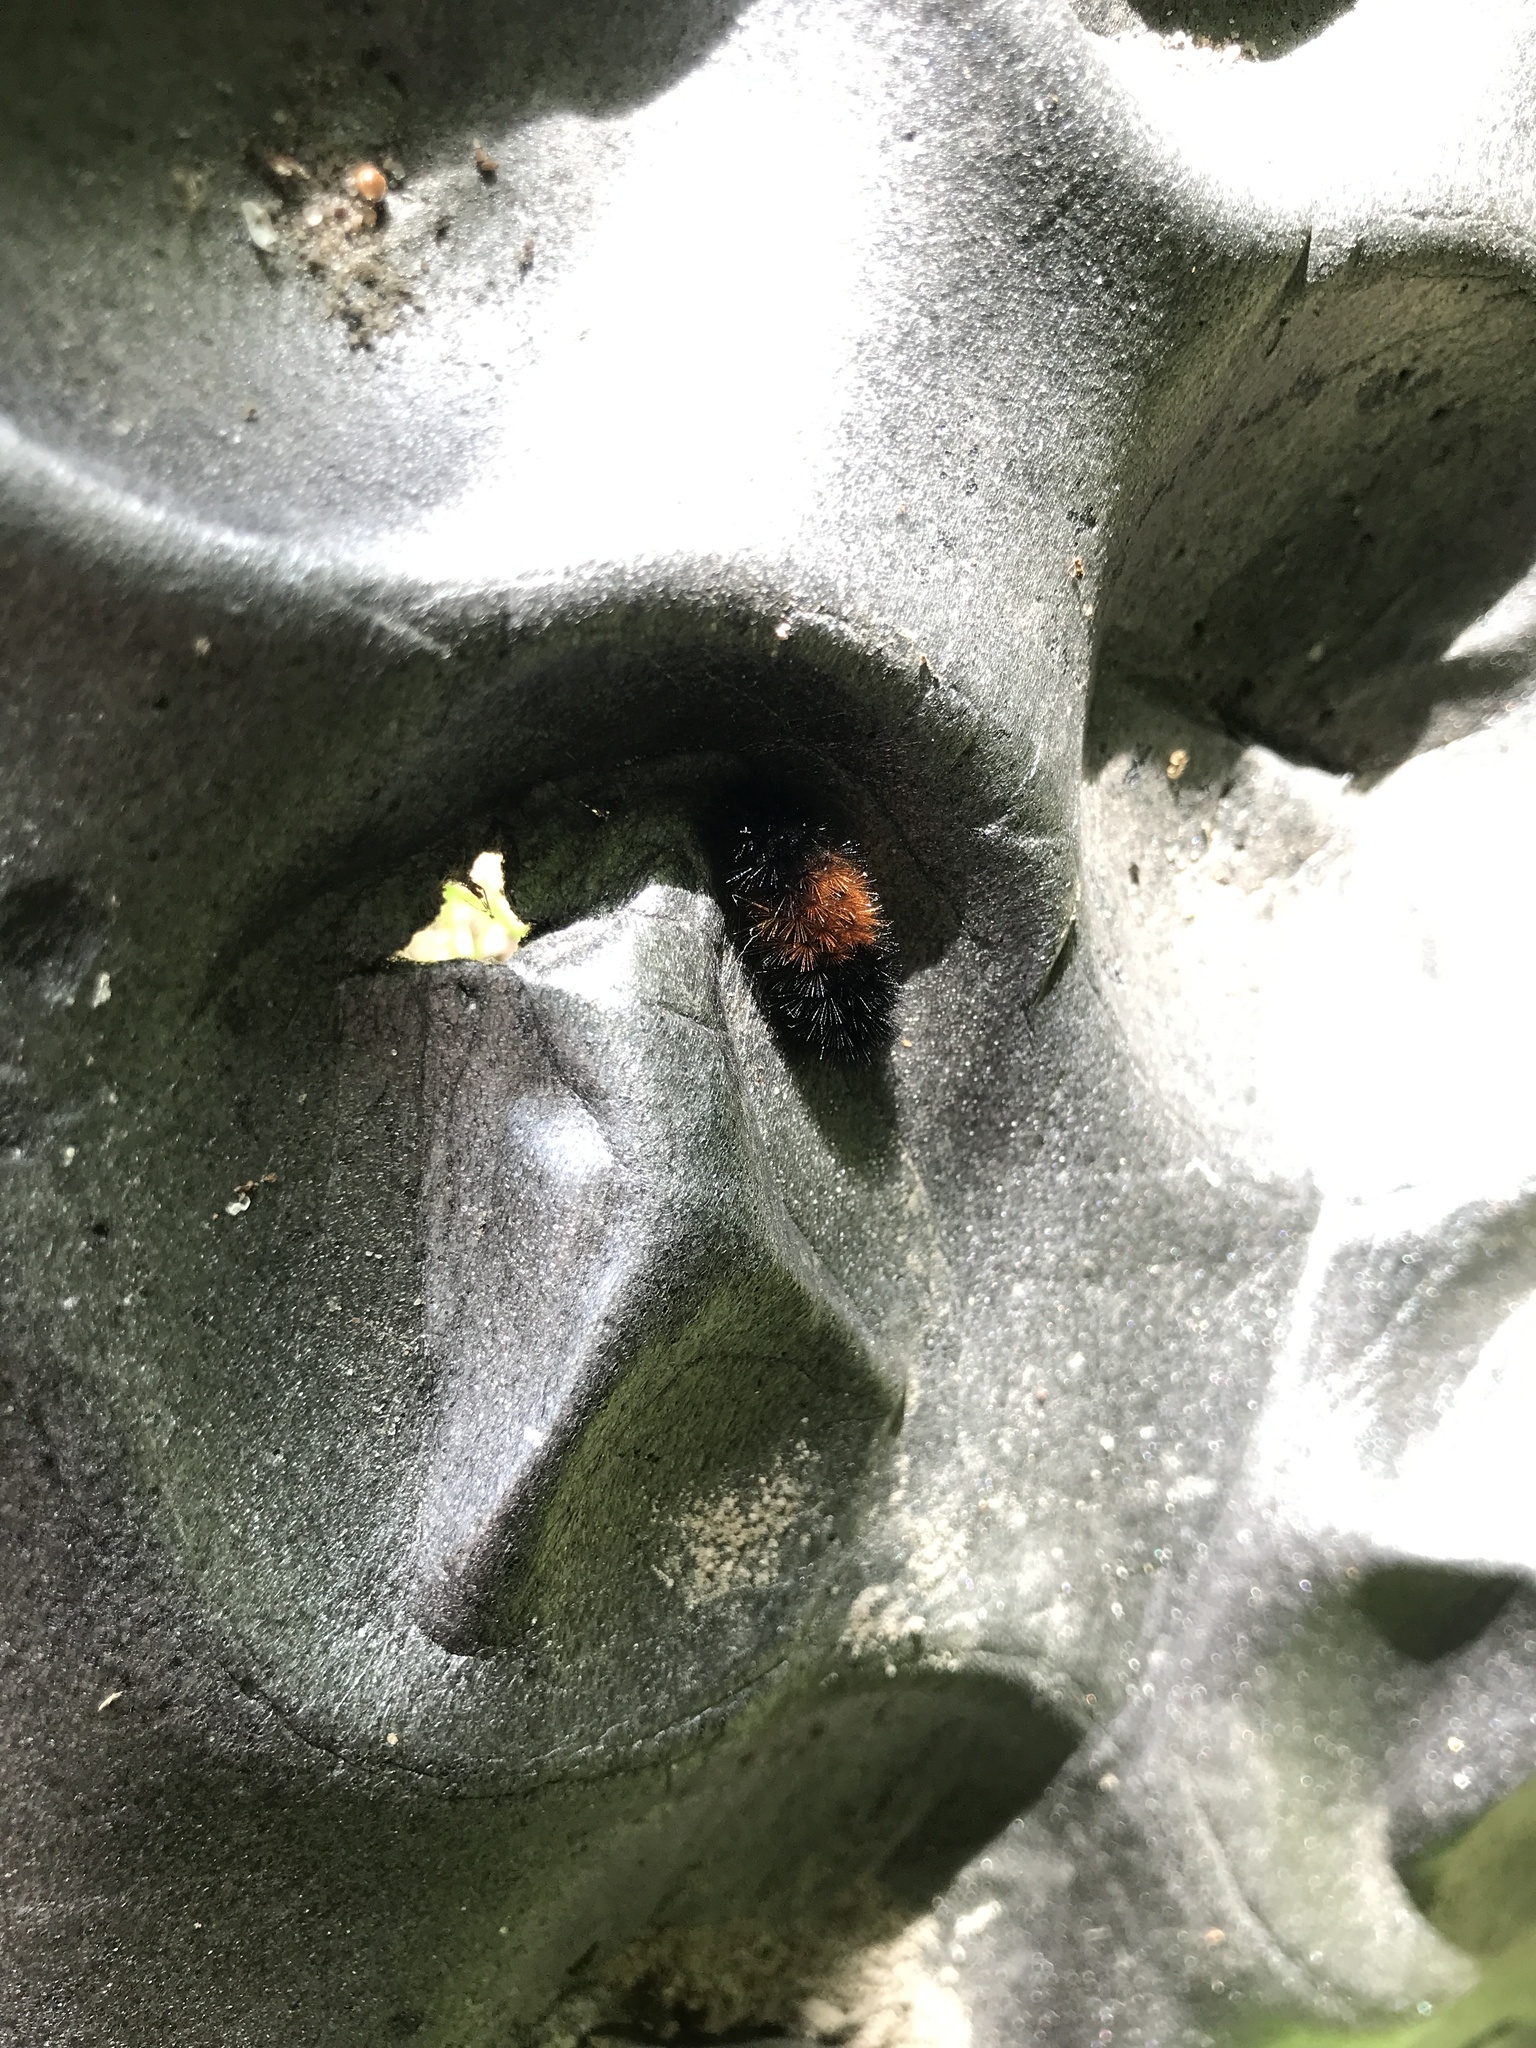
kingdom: Animalia
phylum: Arthropoda
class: Insecta
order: Lepidoptera
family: Erebidae
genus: Pyrrharctia
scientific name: Pyrrharctia isabella
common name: Isabella tiger moth
